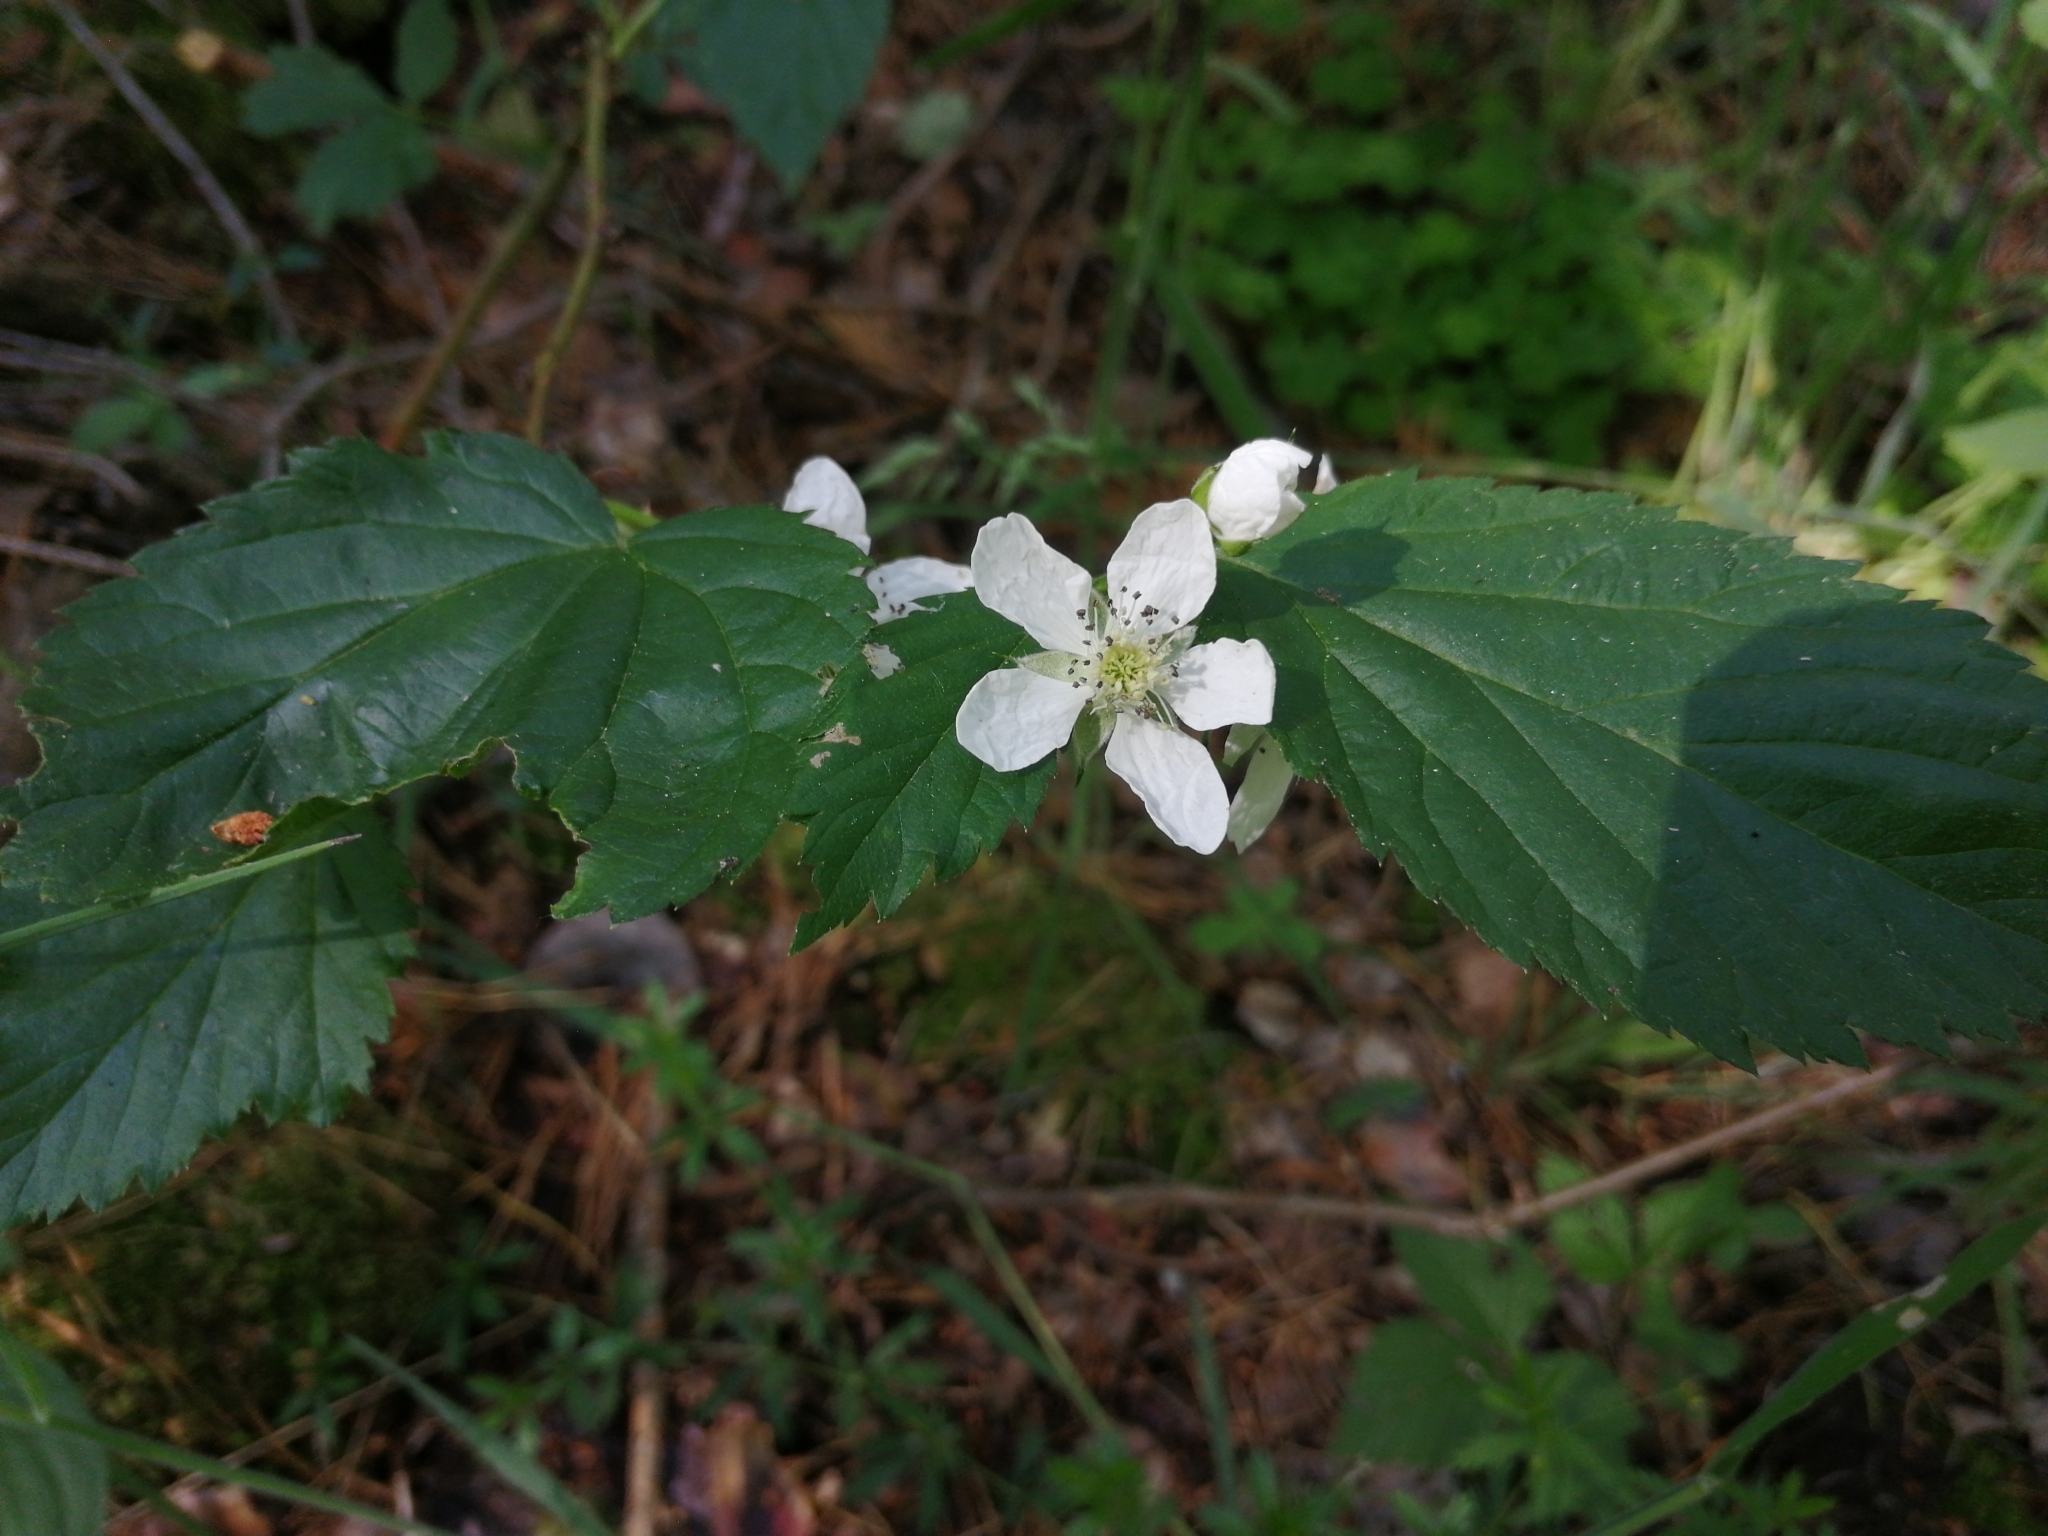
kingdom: Plantae
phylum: Tracheophyta
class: Magnoliopsida
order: Rosales
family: Rosaceae
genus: Rubus
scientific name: Rubus polonicus
